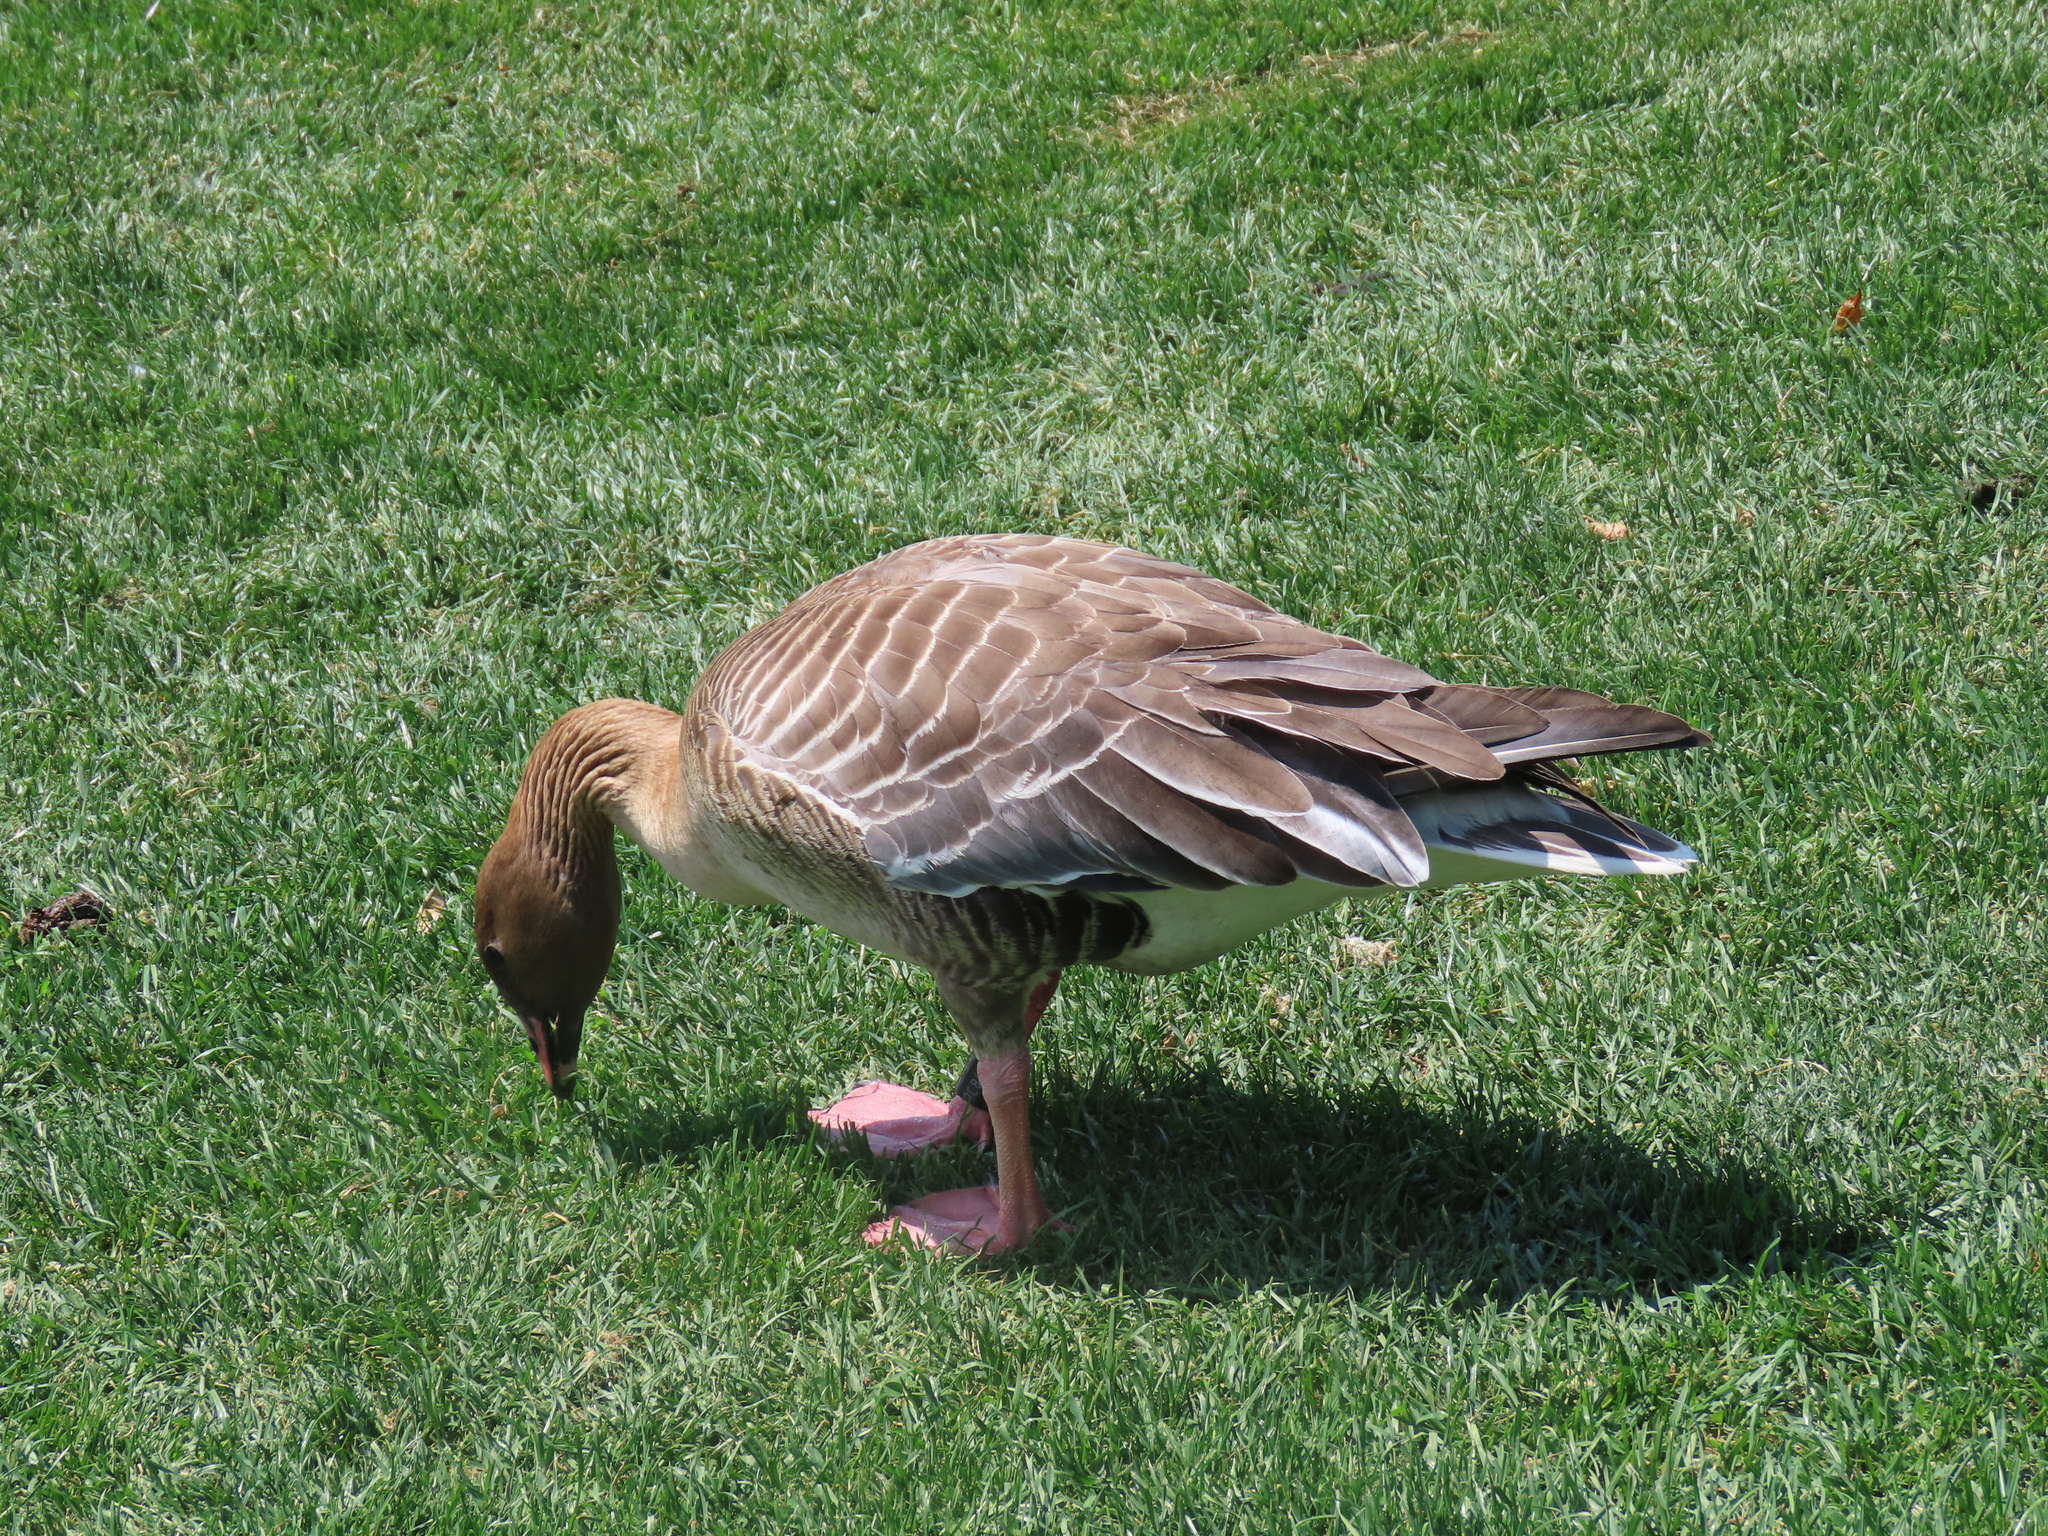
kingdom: Animalia
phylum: Chordata
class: Aves
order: Anseriformes
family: Anatidae
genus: Anser
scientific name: Anser brachyrhynchus
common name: Pink-footed goose
